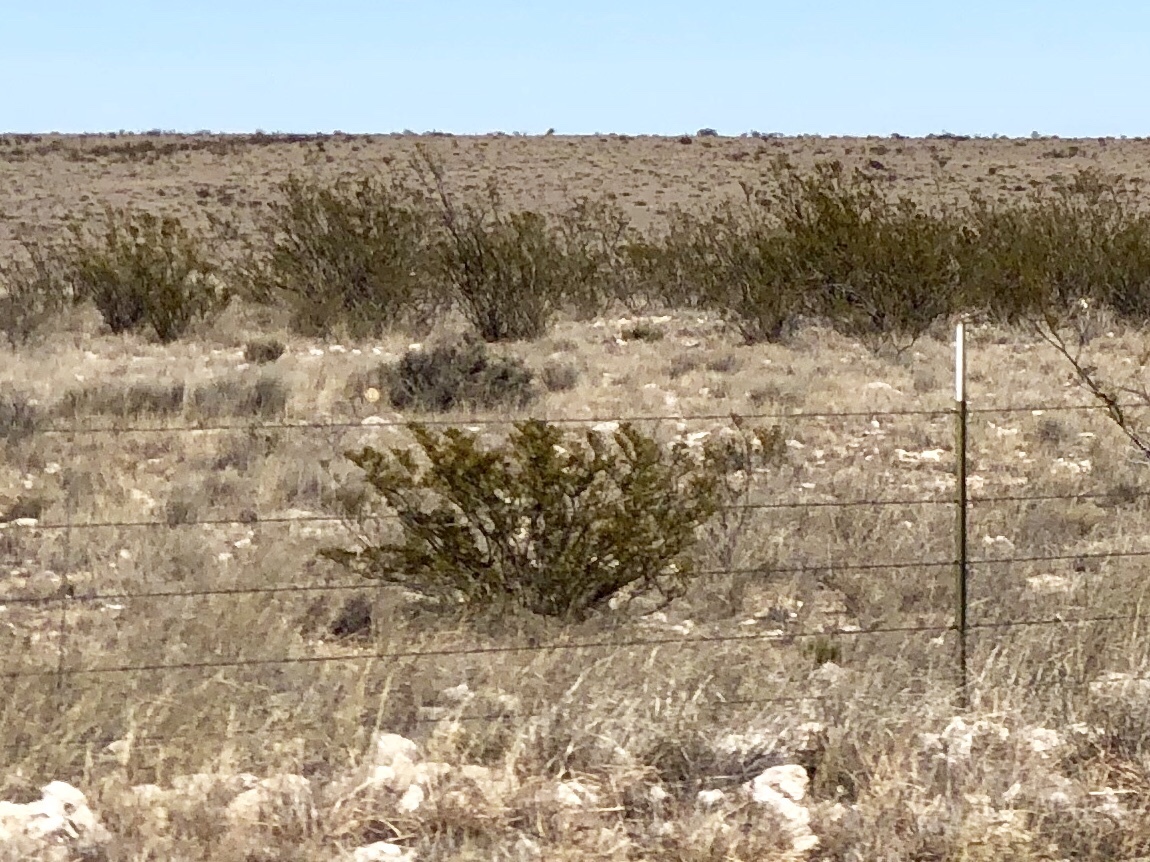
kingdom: Plantae
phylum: Tracheophyta
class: Magnoliopsida
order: Zygophyllales
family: Zygophyllaceae
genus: Larrea
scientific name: Larrea tridentata
